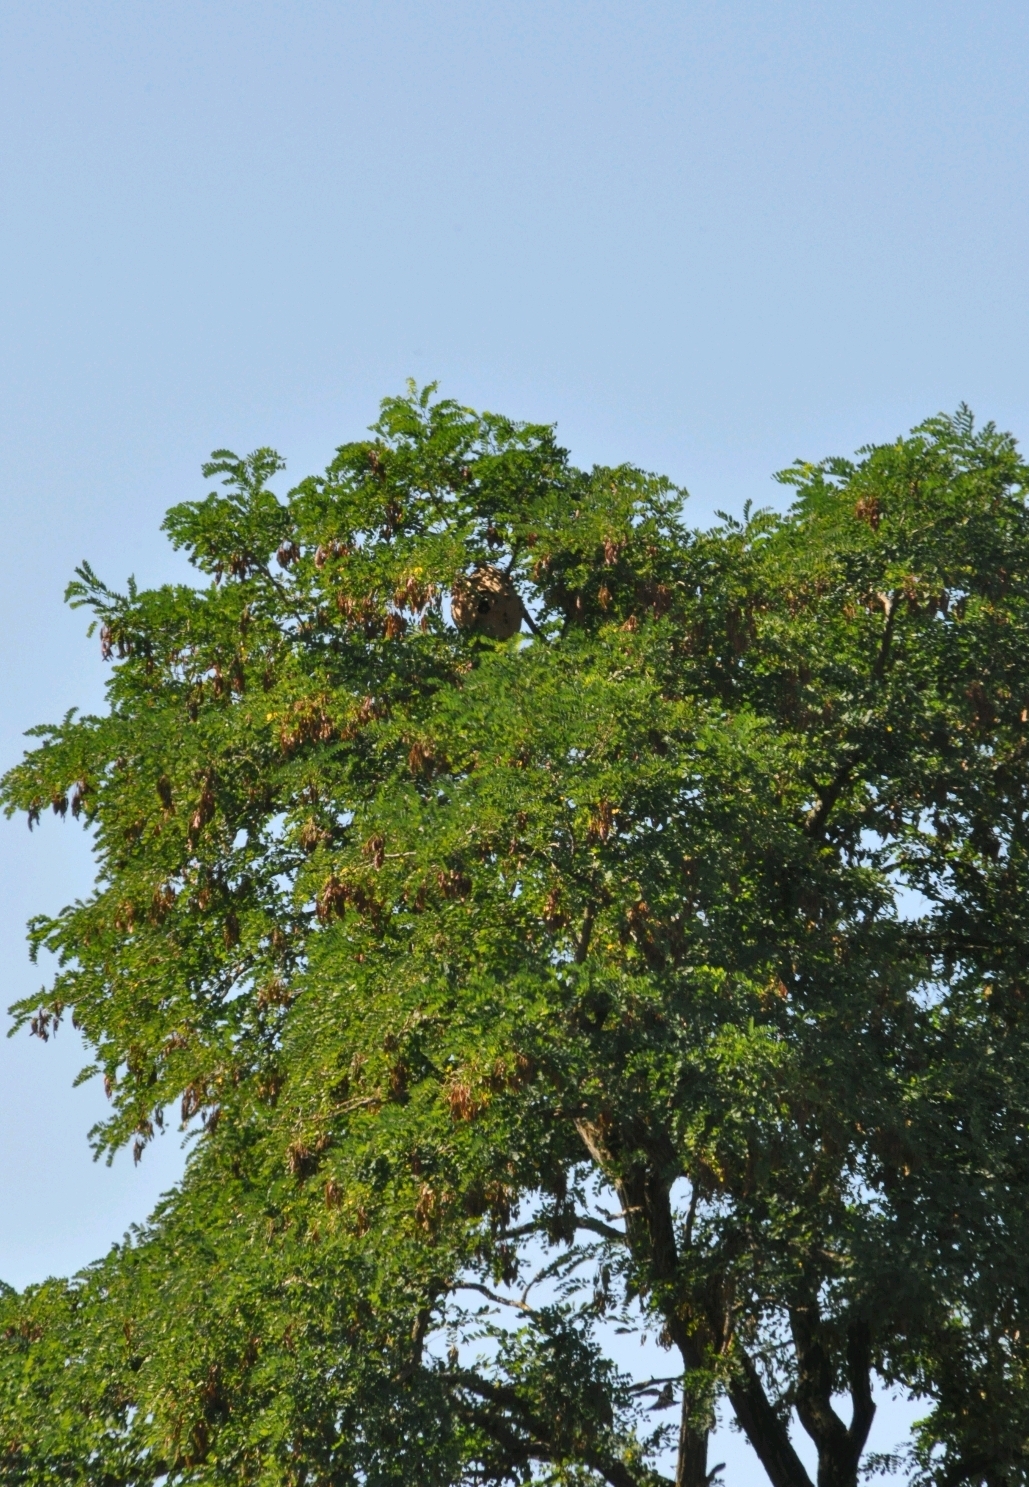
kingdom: Animalia
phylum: Arthropoda
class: Insecta
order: Hymenoptera
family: Vespidae
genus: Vespa
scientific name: Vespa velutina
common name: Asian hornet
